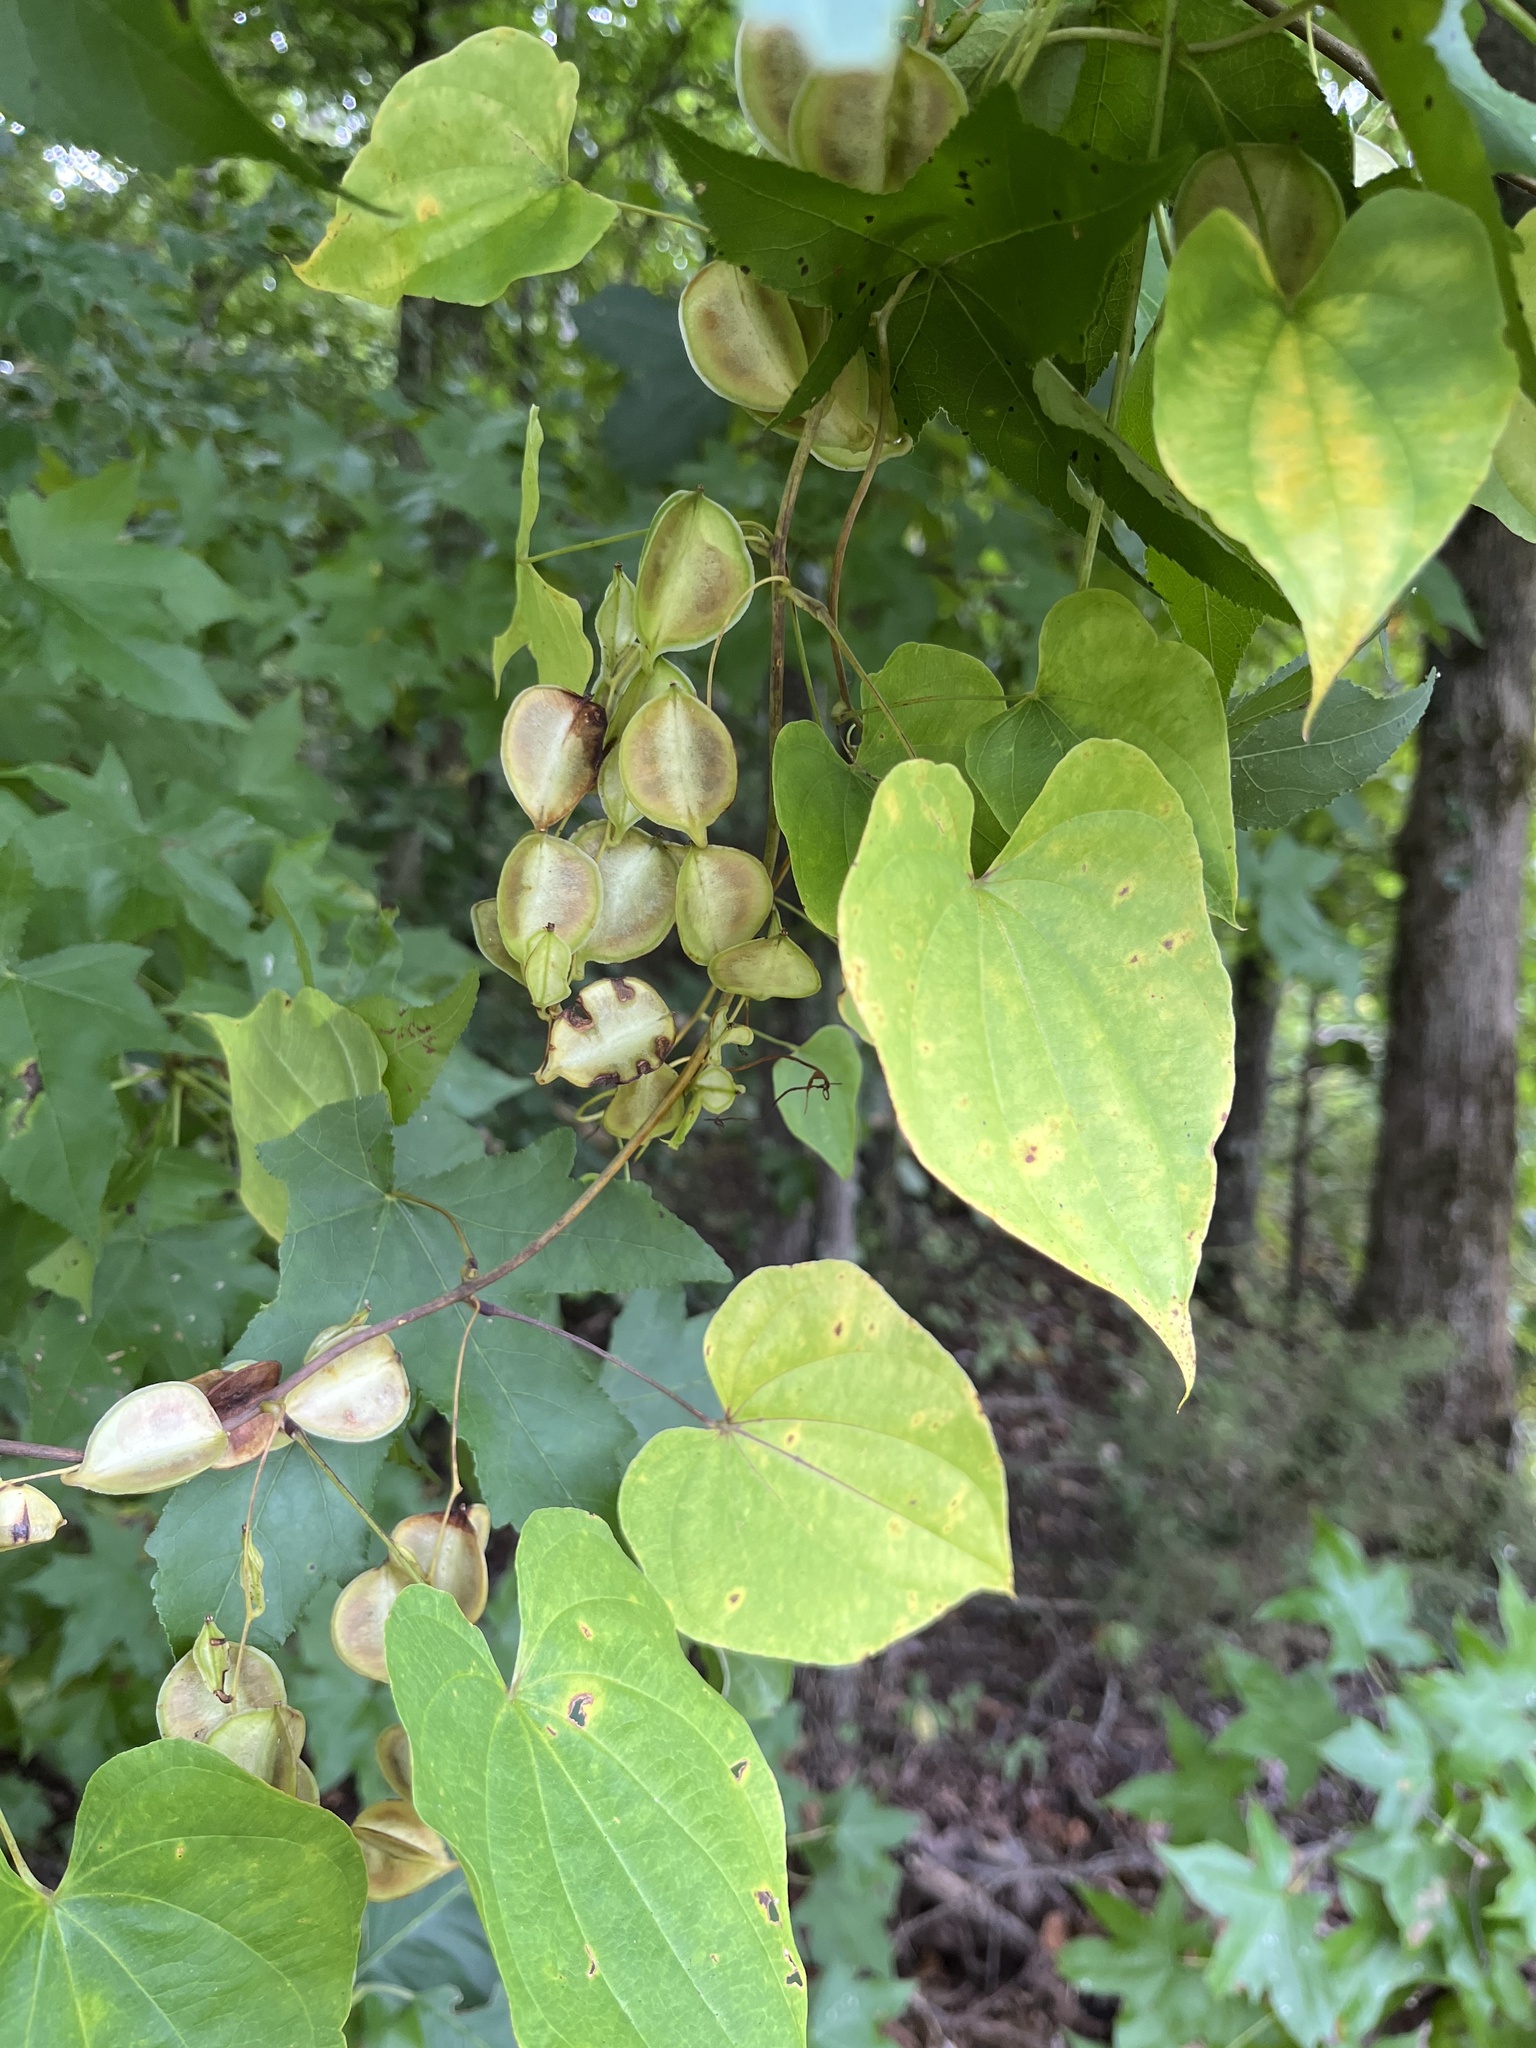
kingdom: Plantae
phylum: Tracheophyta
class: Liliopsida
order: Dioscoreales
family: Dioscoreaceae
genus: Dioscorea
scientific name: Dioscorea villosa
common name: Wild yam
